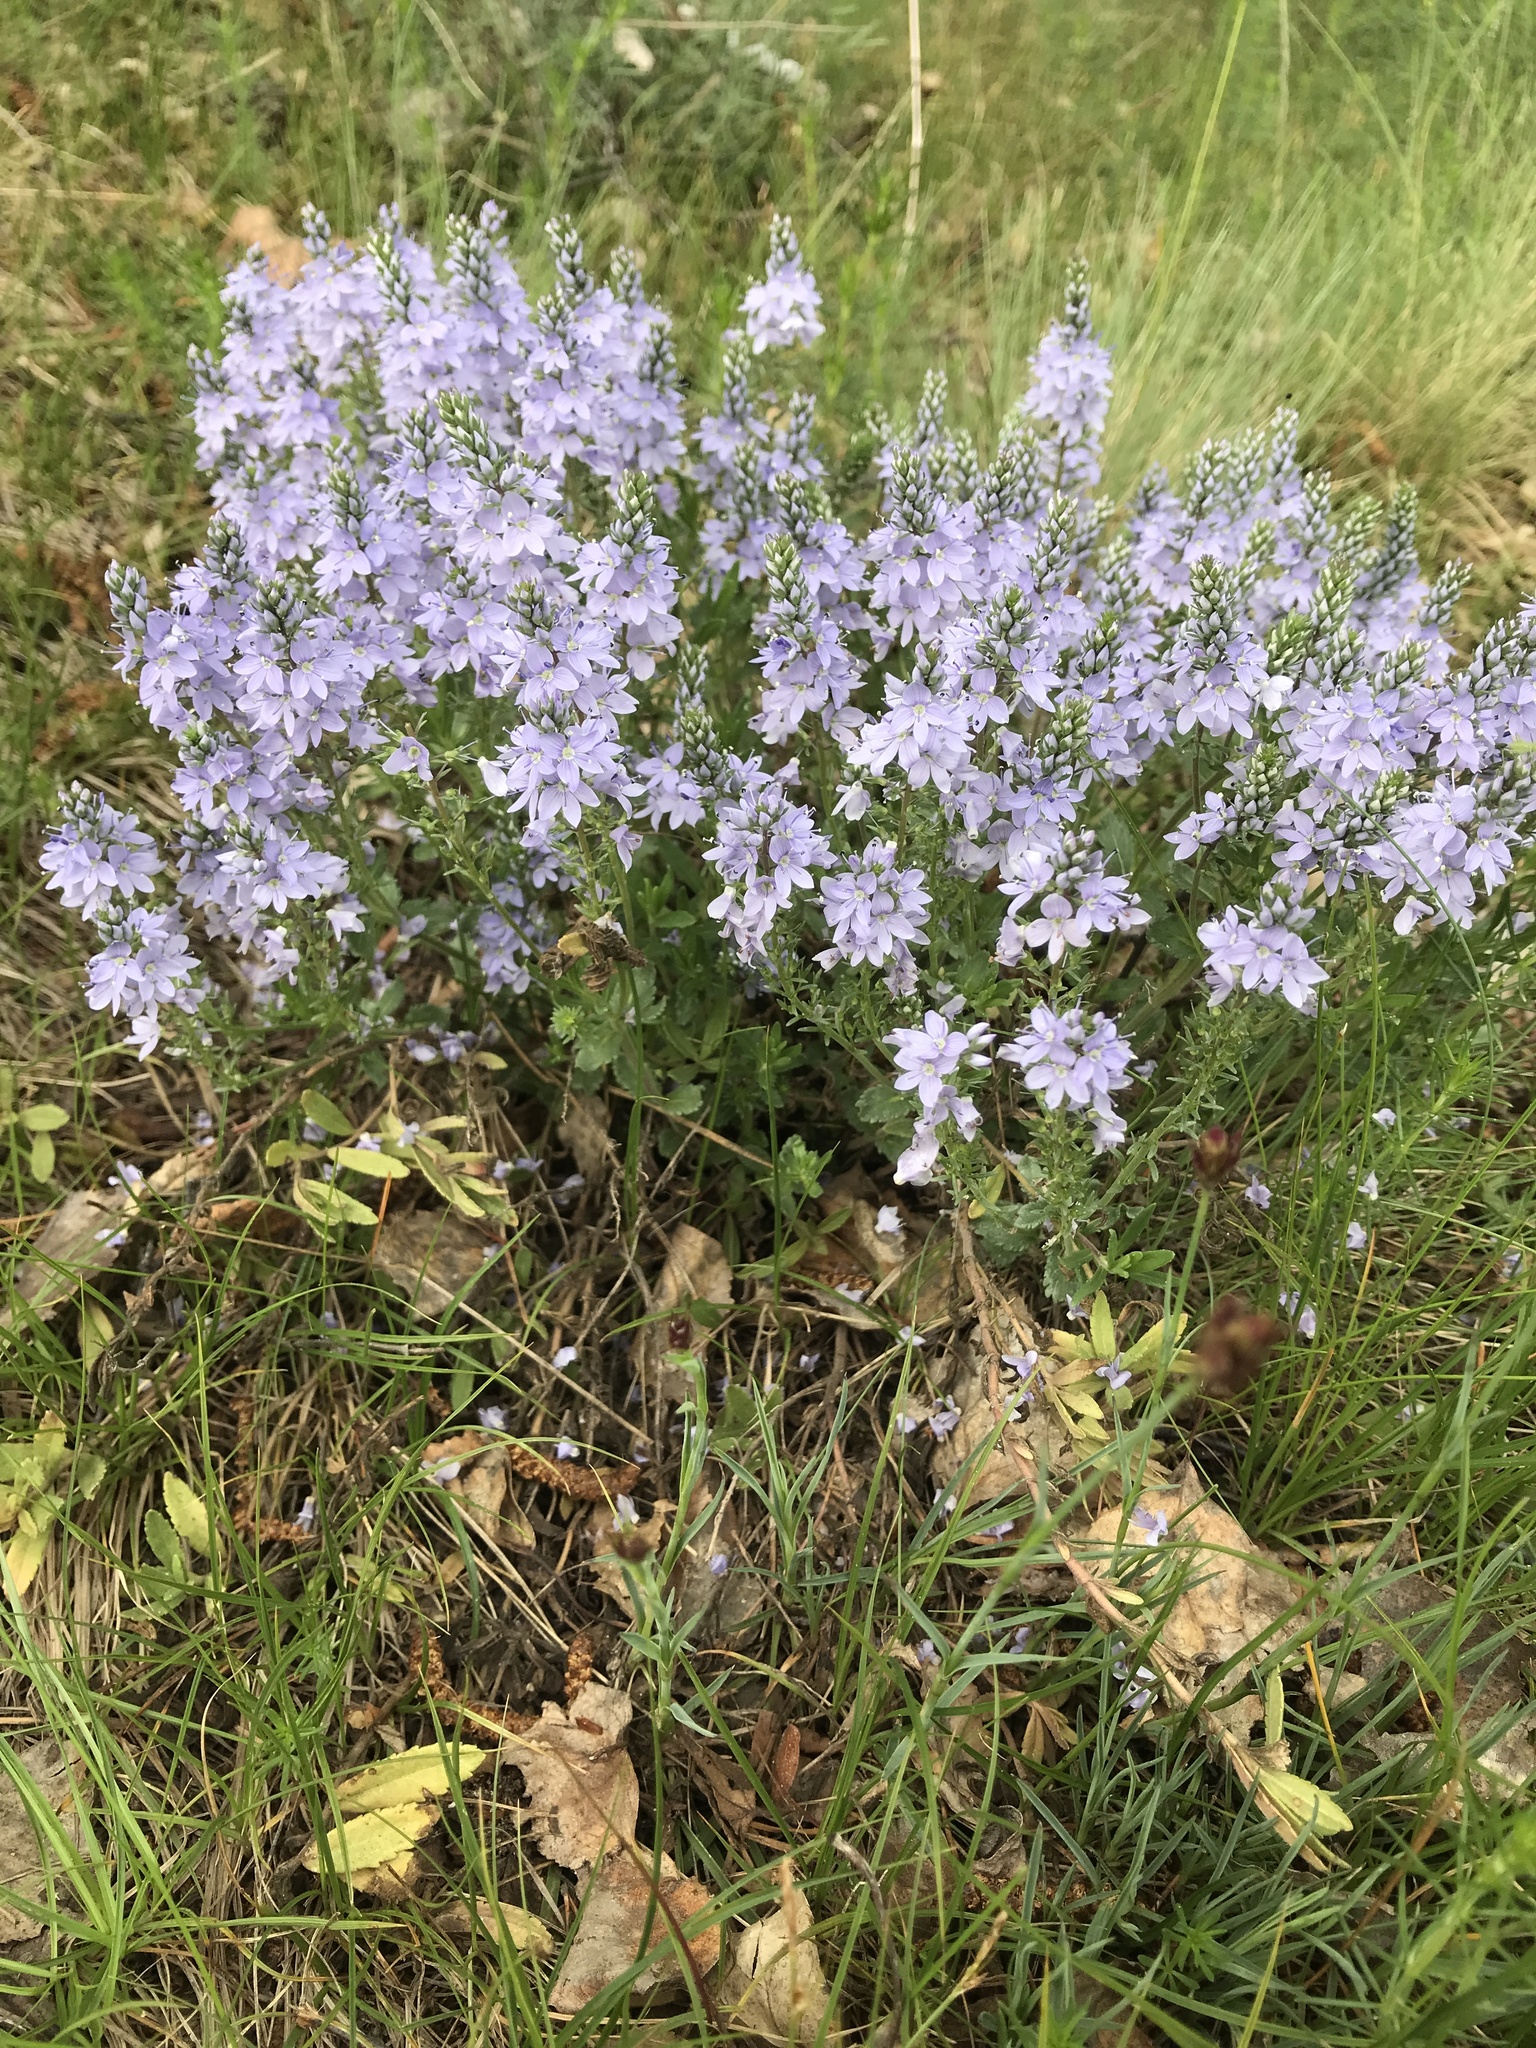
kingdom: Plantae
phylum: Tracheophyta
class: Magnoliopsida
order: Lamiales
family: Plantaginaceae
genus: Veronica
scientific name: Veronica prostrata
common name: Prostrate speedwell
